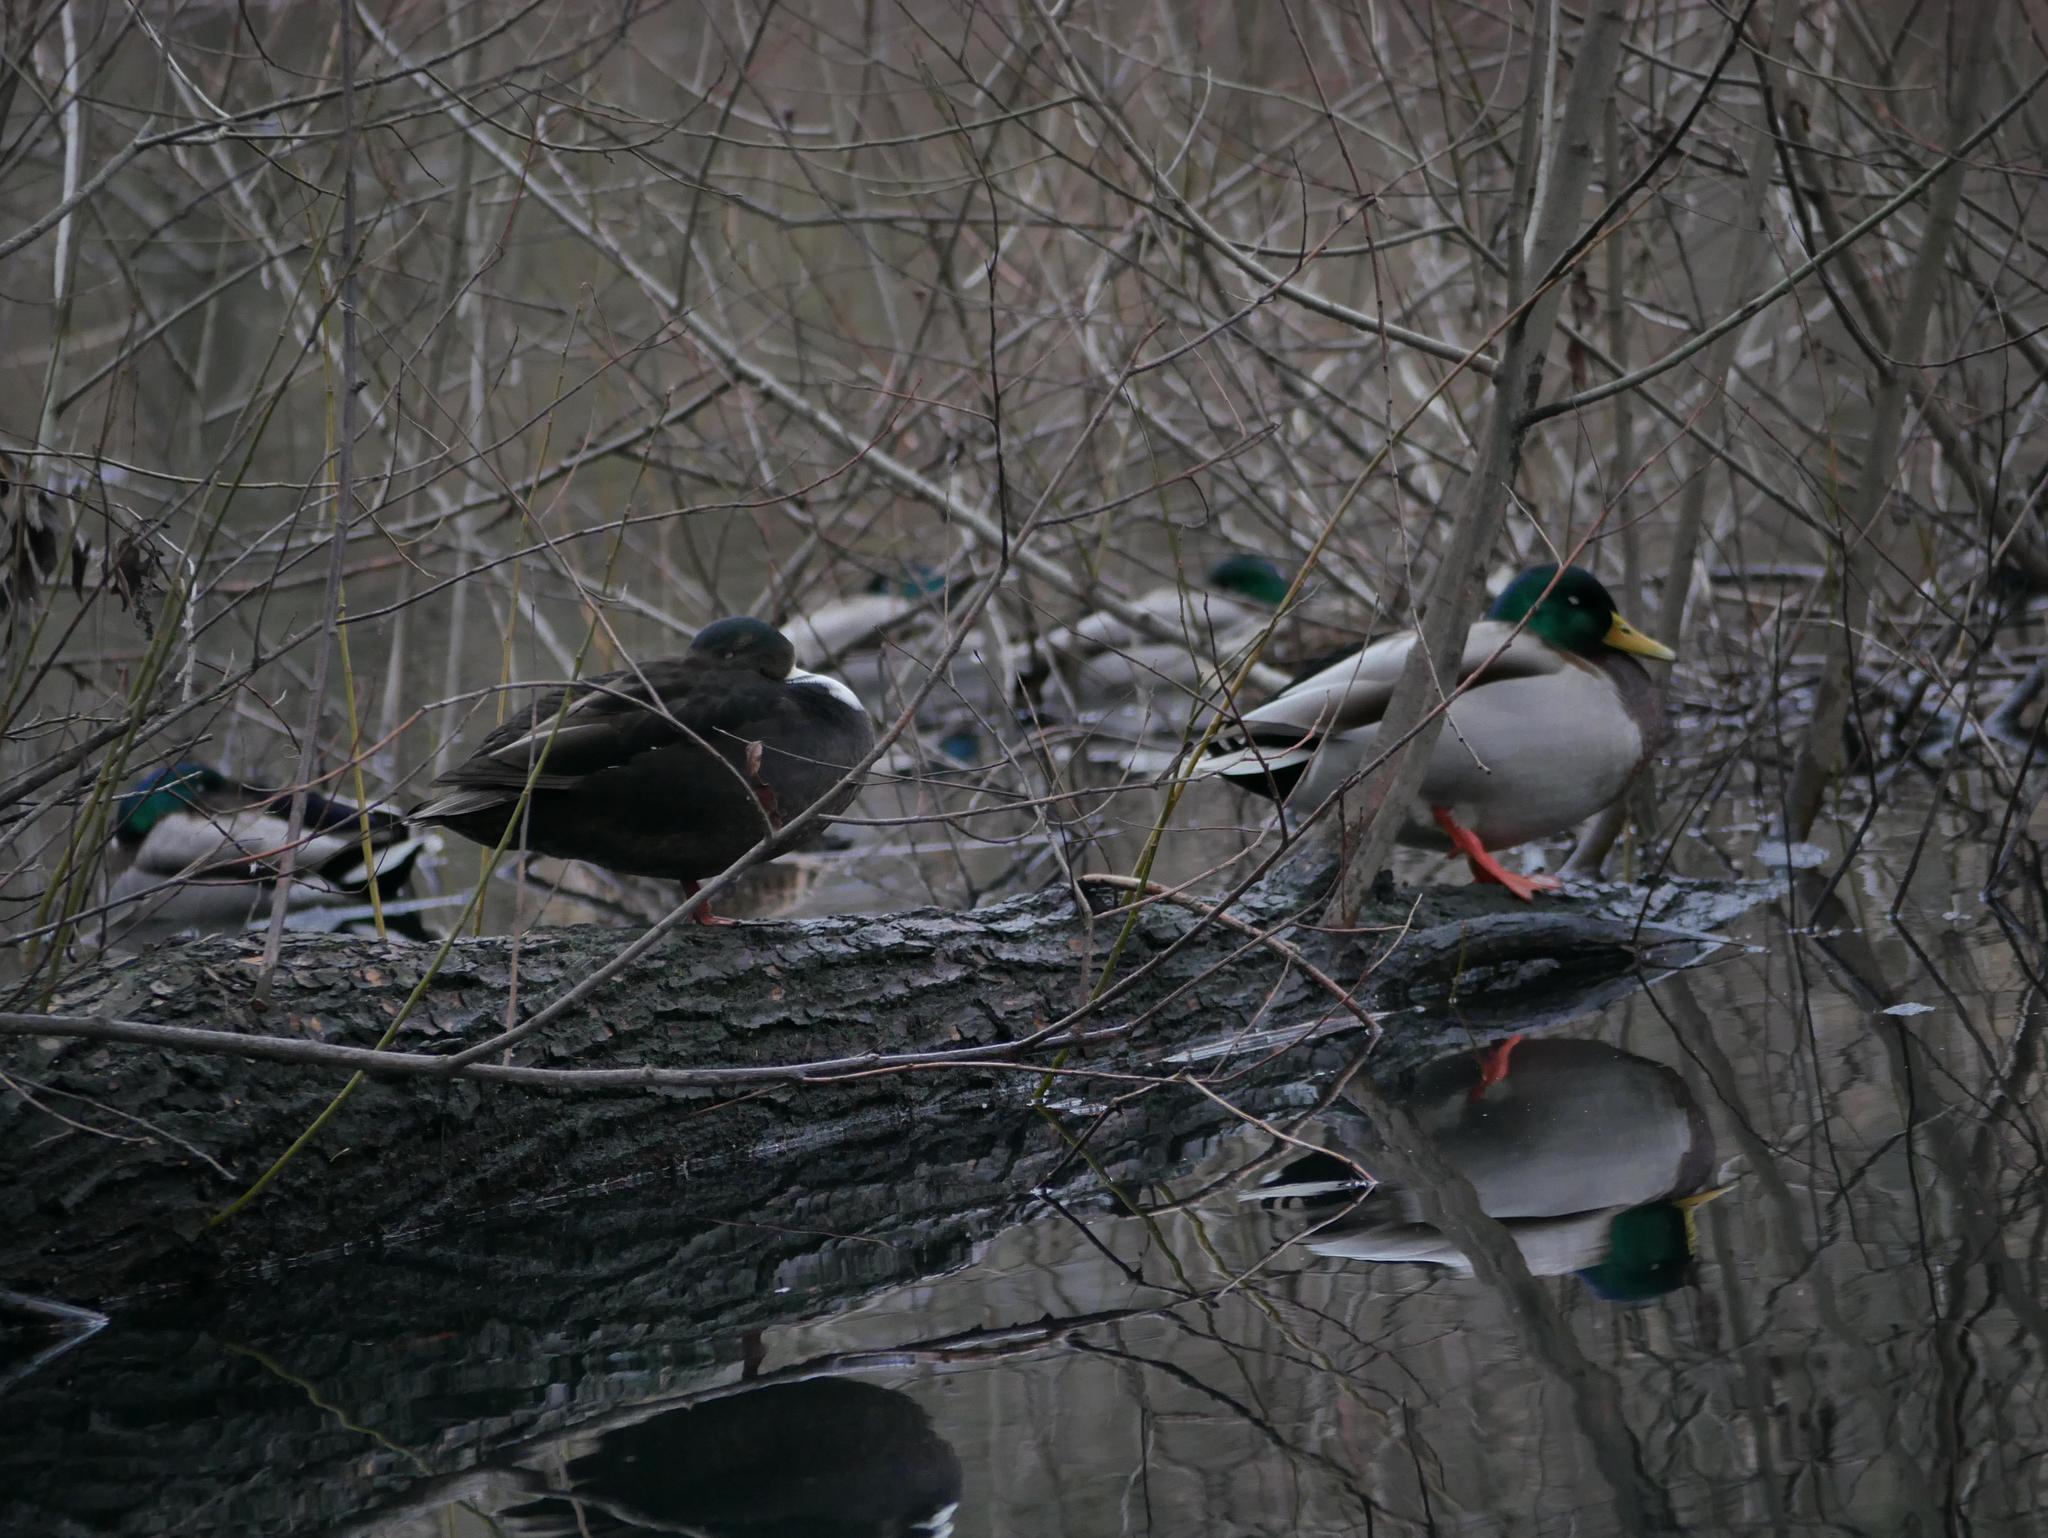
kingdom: Animalia
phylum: Chordata
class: Aves
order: Anseriformes
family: Anatidae
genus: Anas
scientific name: Anas platyrhynchos
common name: Mallard
